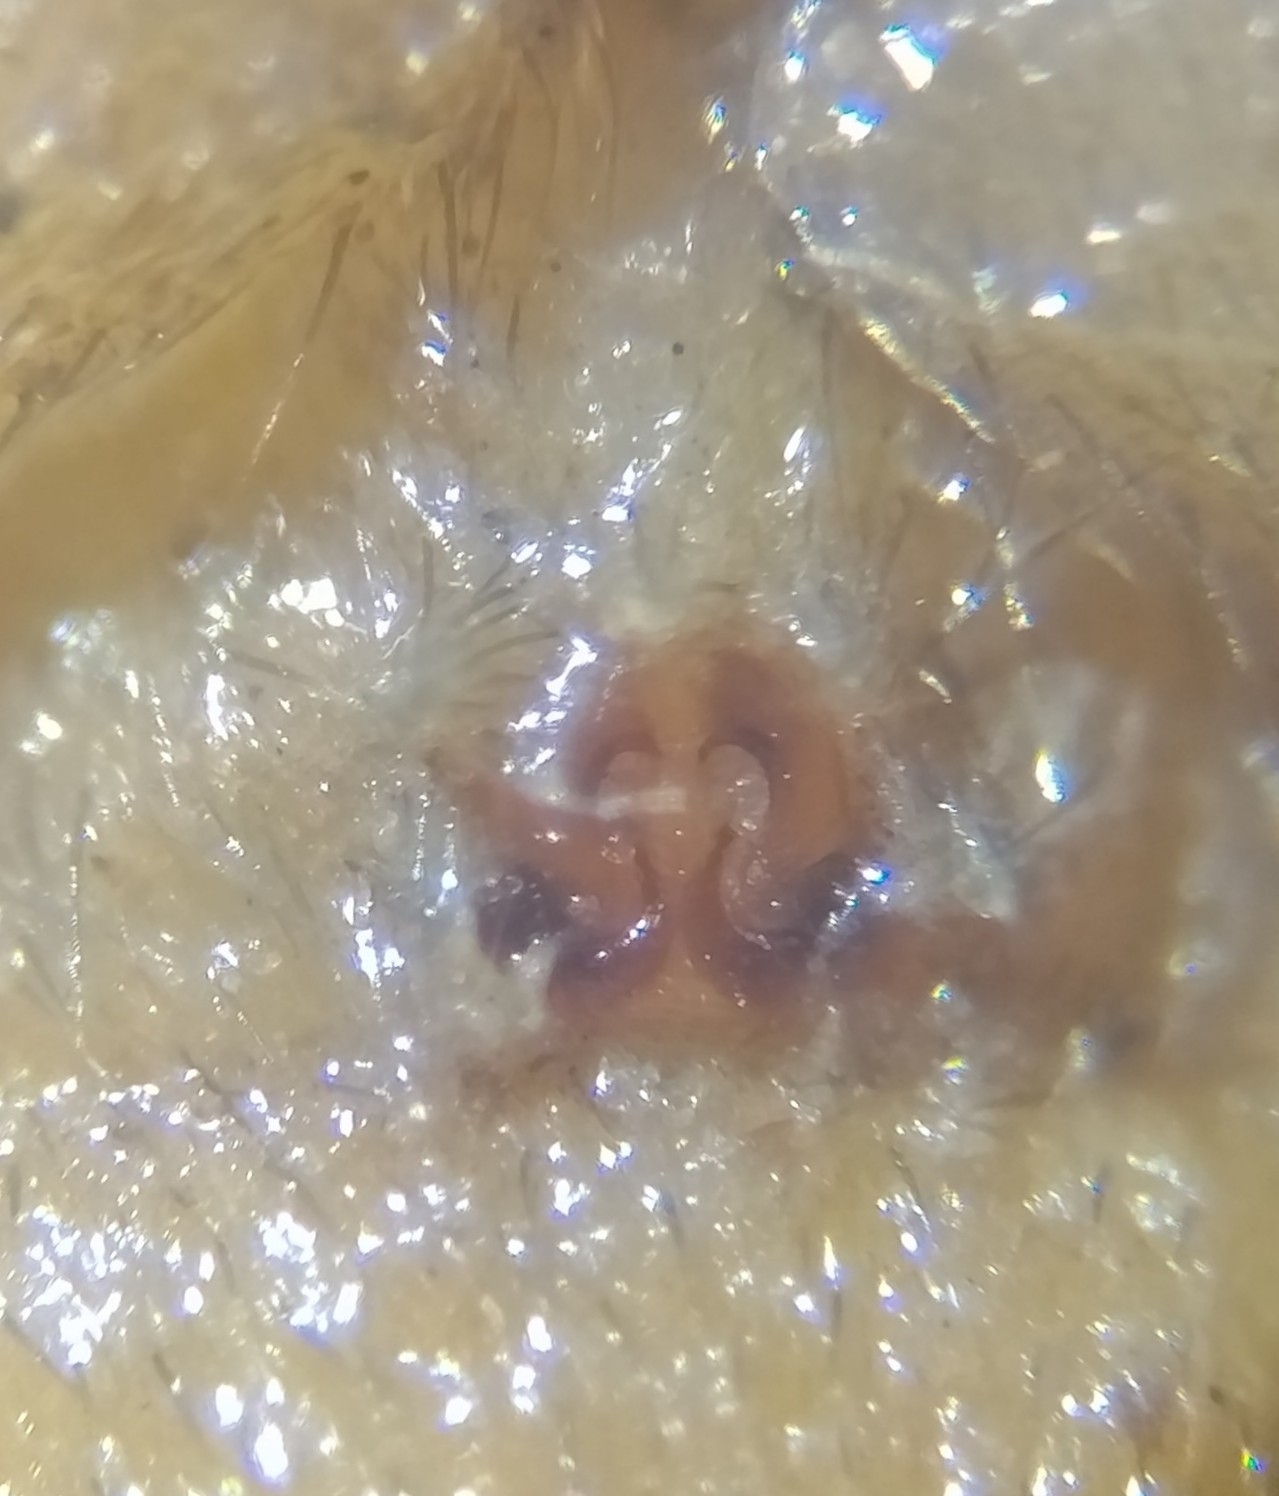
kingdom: Animalia
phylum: Arthropoda
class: Arachnida
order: Araneae
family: Lycosidae
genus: Trochosa
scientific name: Trochosa
